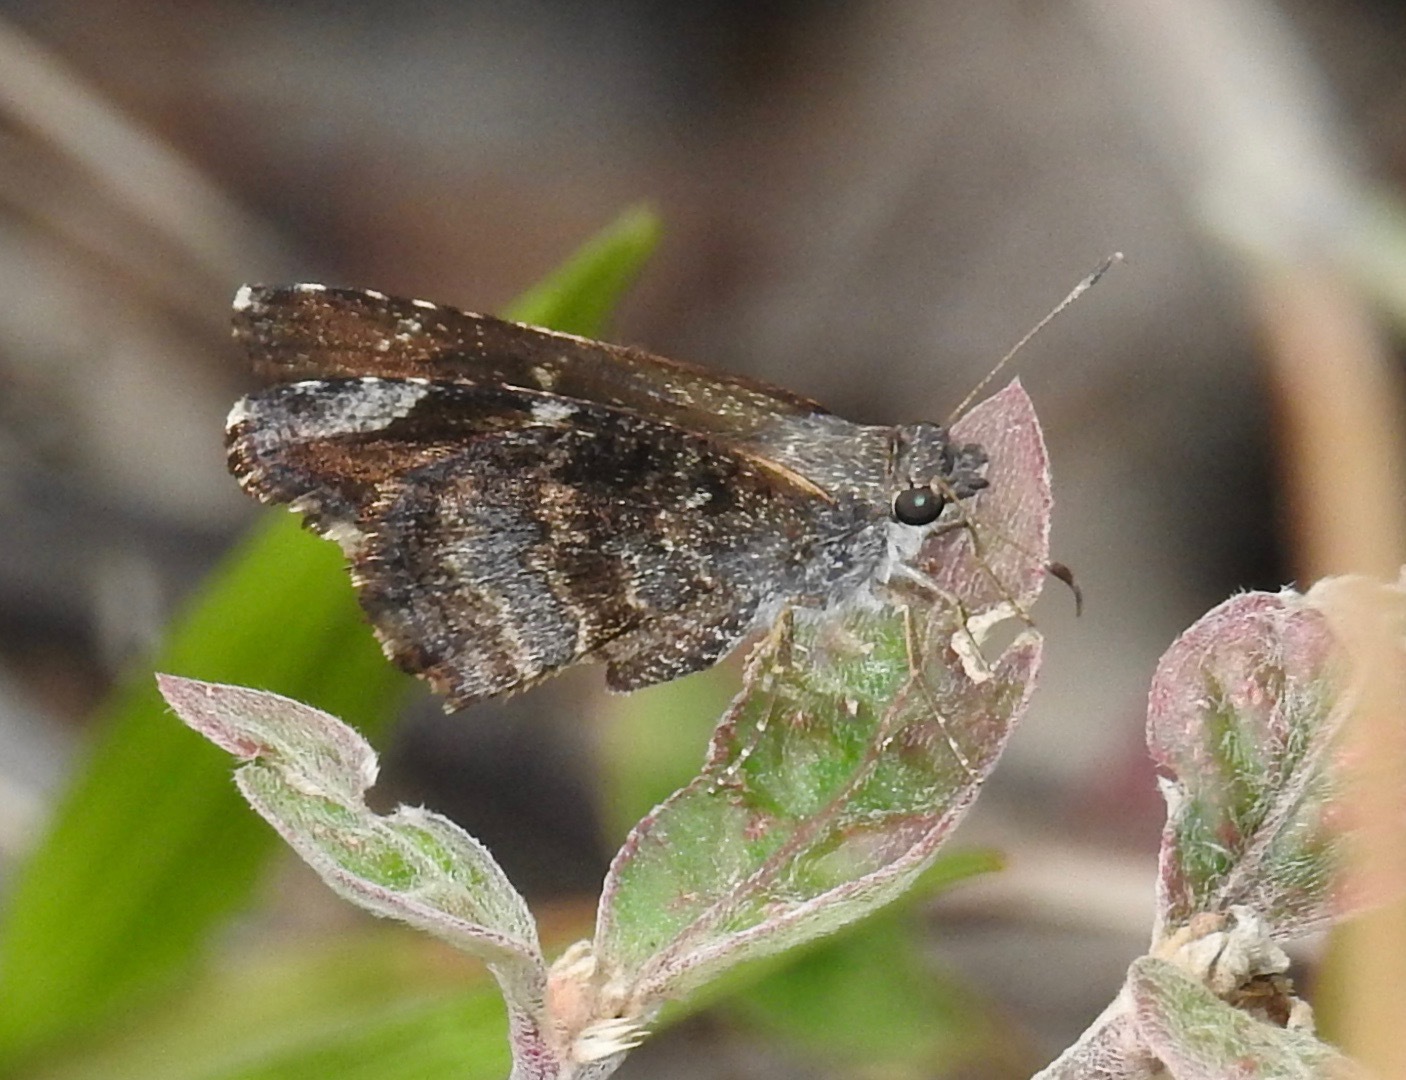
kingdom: Animalia
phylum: Arthropoda
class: Insecta
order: Lepidoptera
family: Hesperiidae
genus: Caicella
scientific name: Caicella calchas
